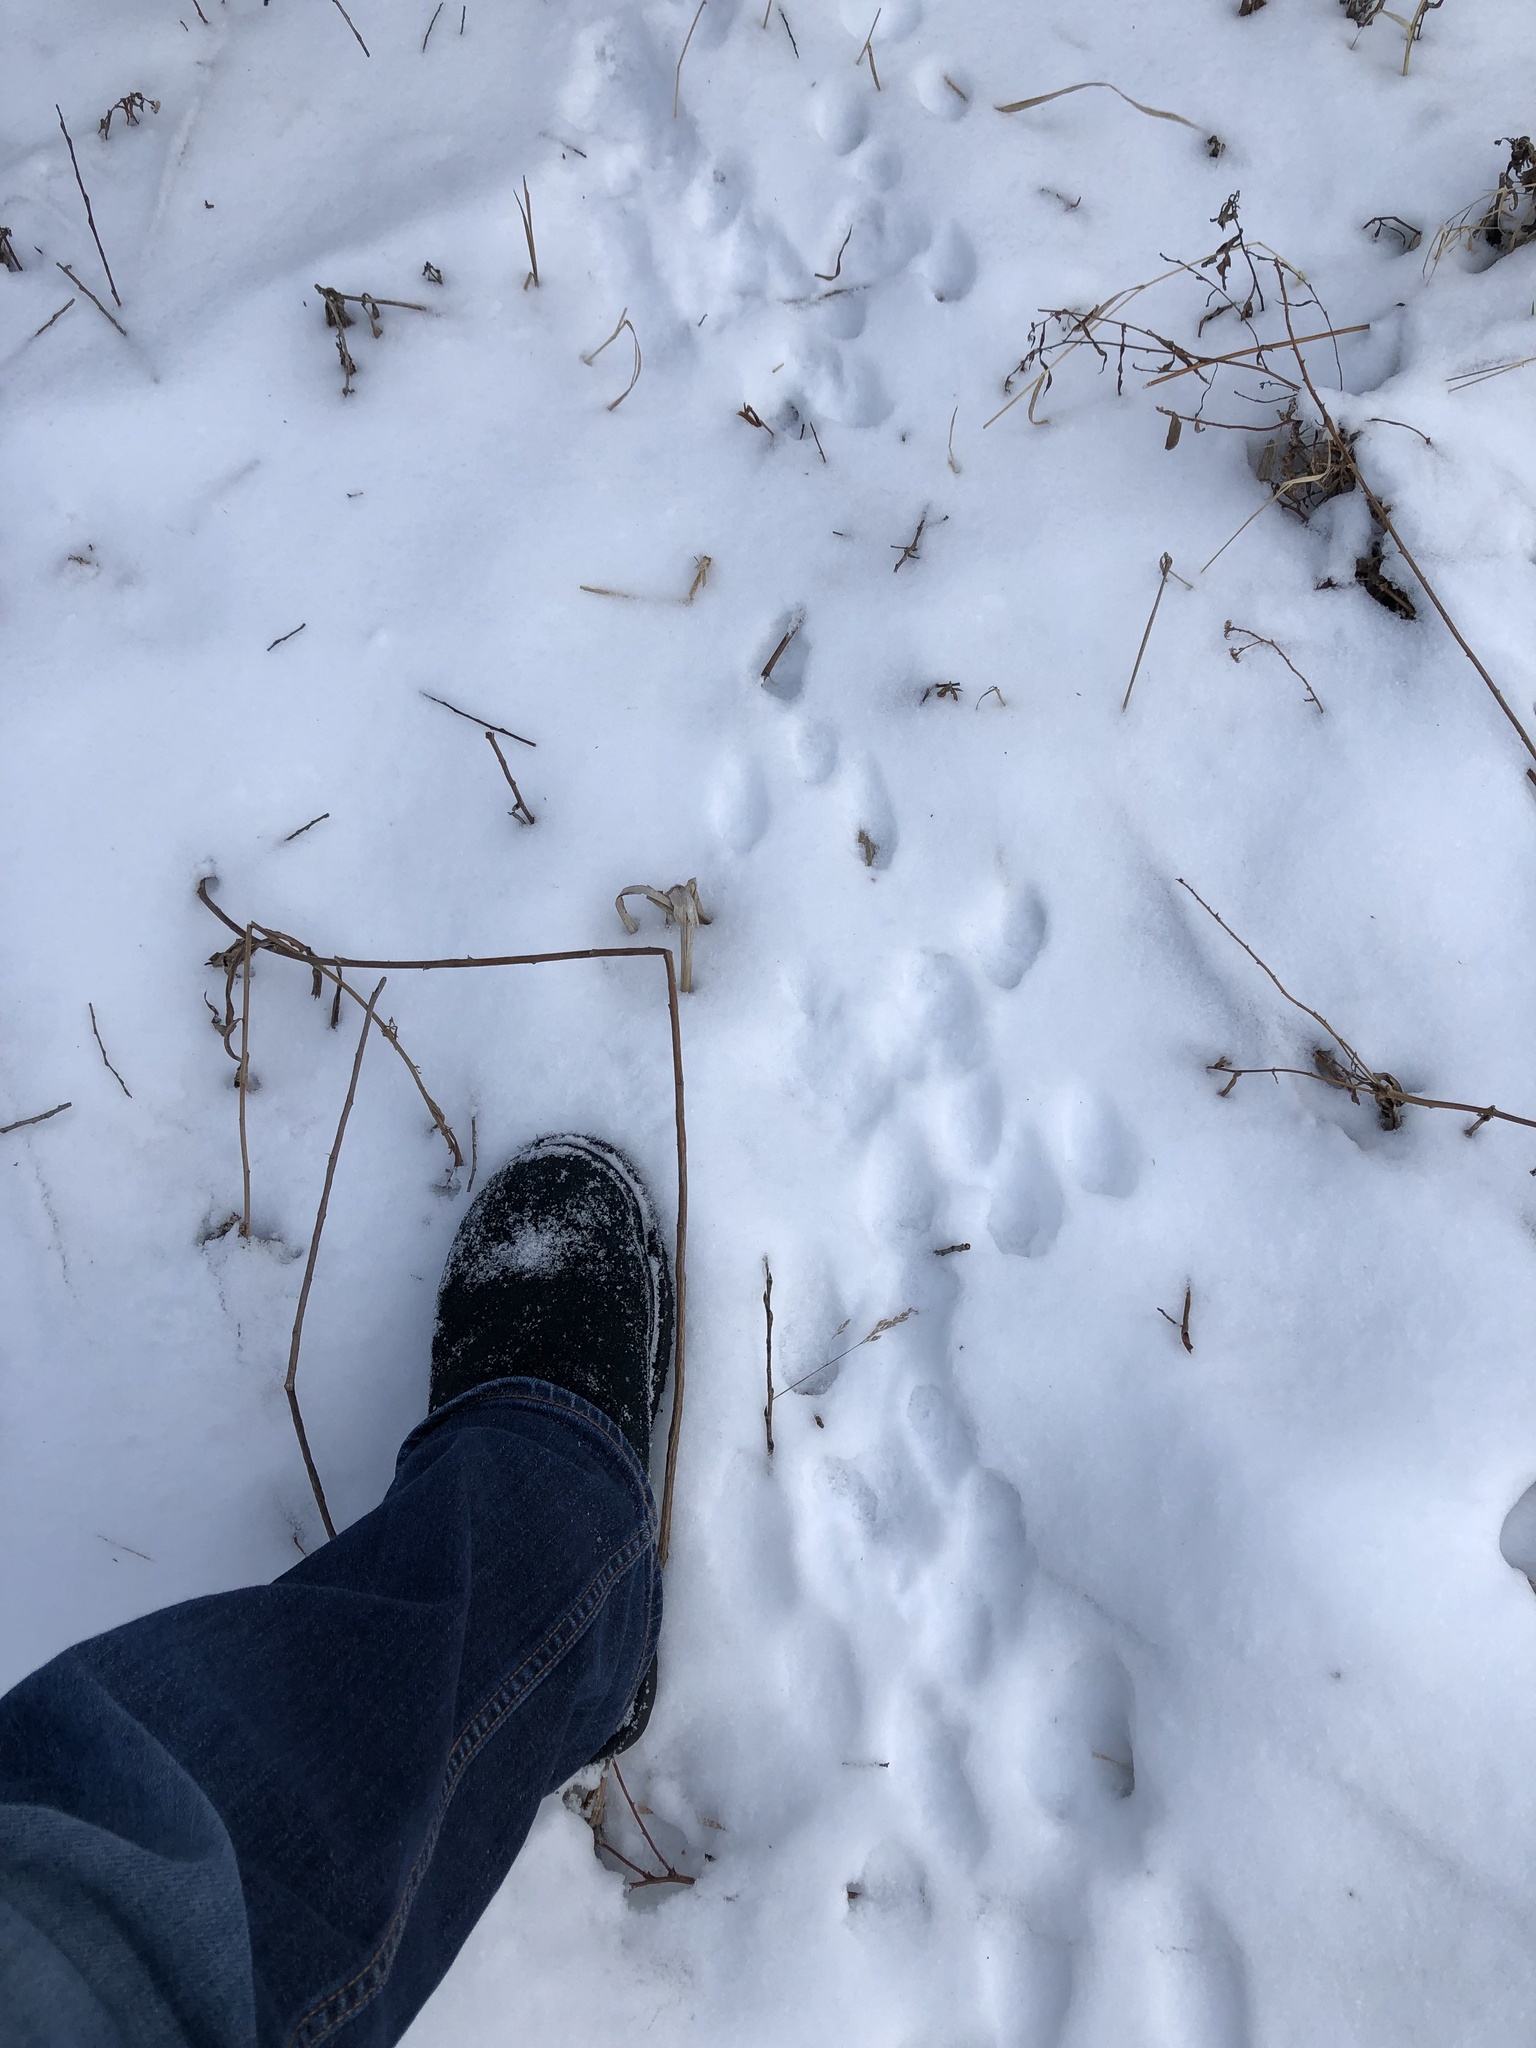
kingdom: Animalia
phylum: Chordata
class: Mammalia
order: Lagomorpha
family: Leporidae
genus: Sylvilagus
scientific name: Sylvilagus floridanus
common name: Eastern cottontail
